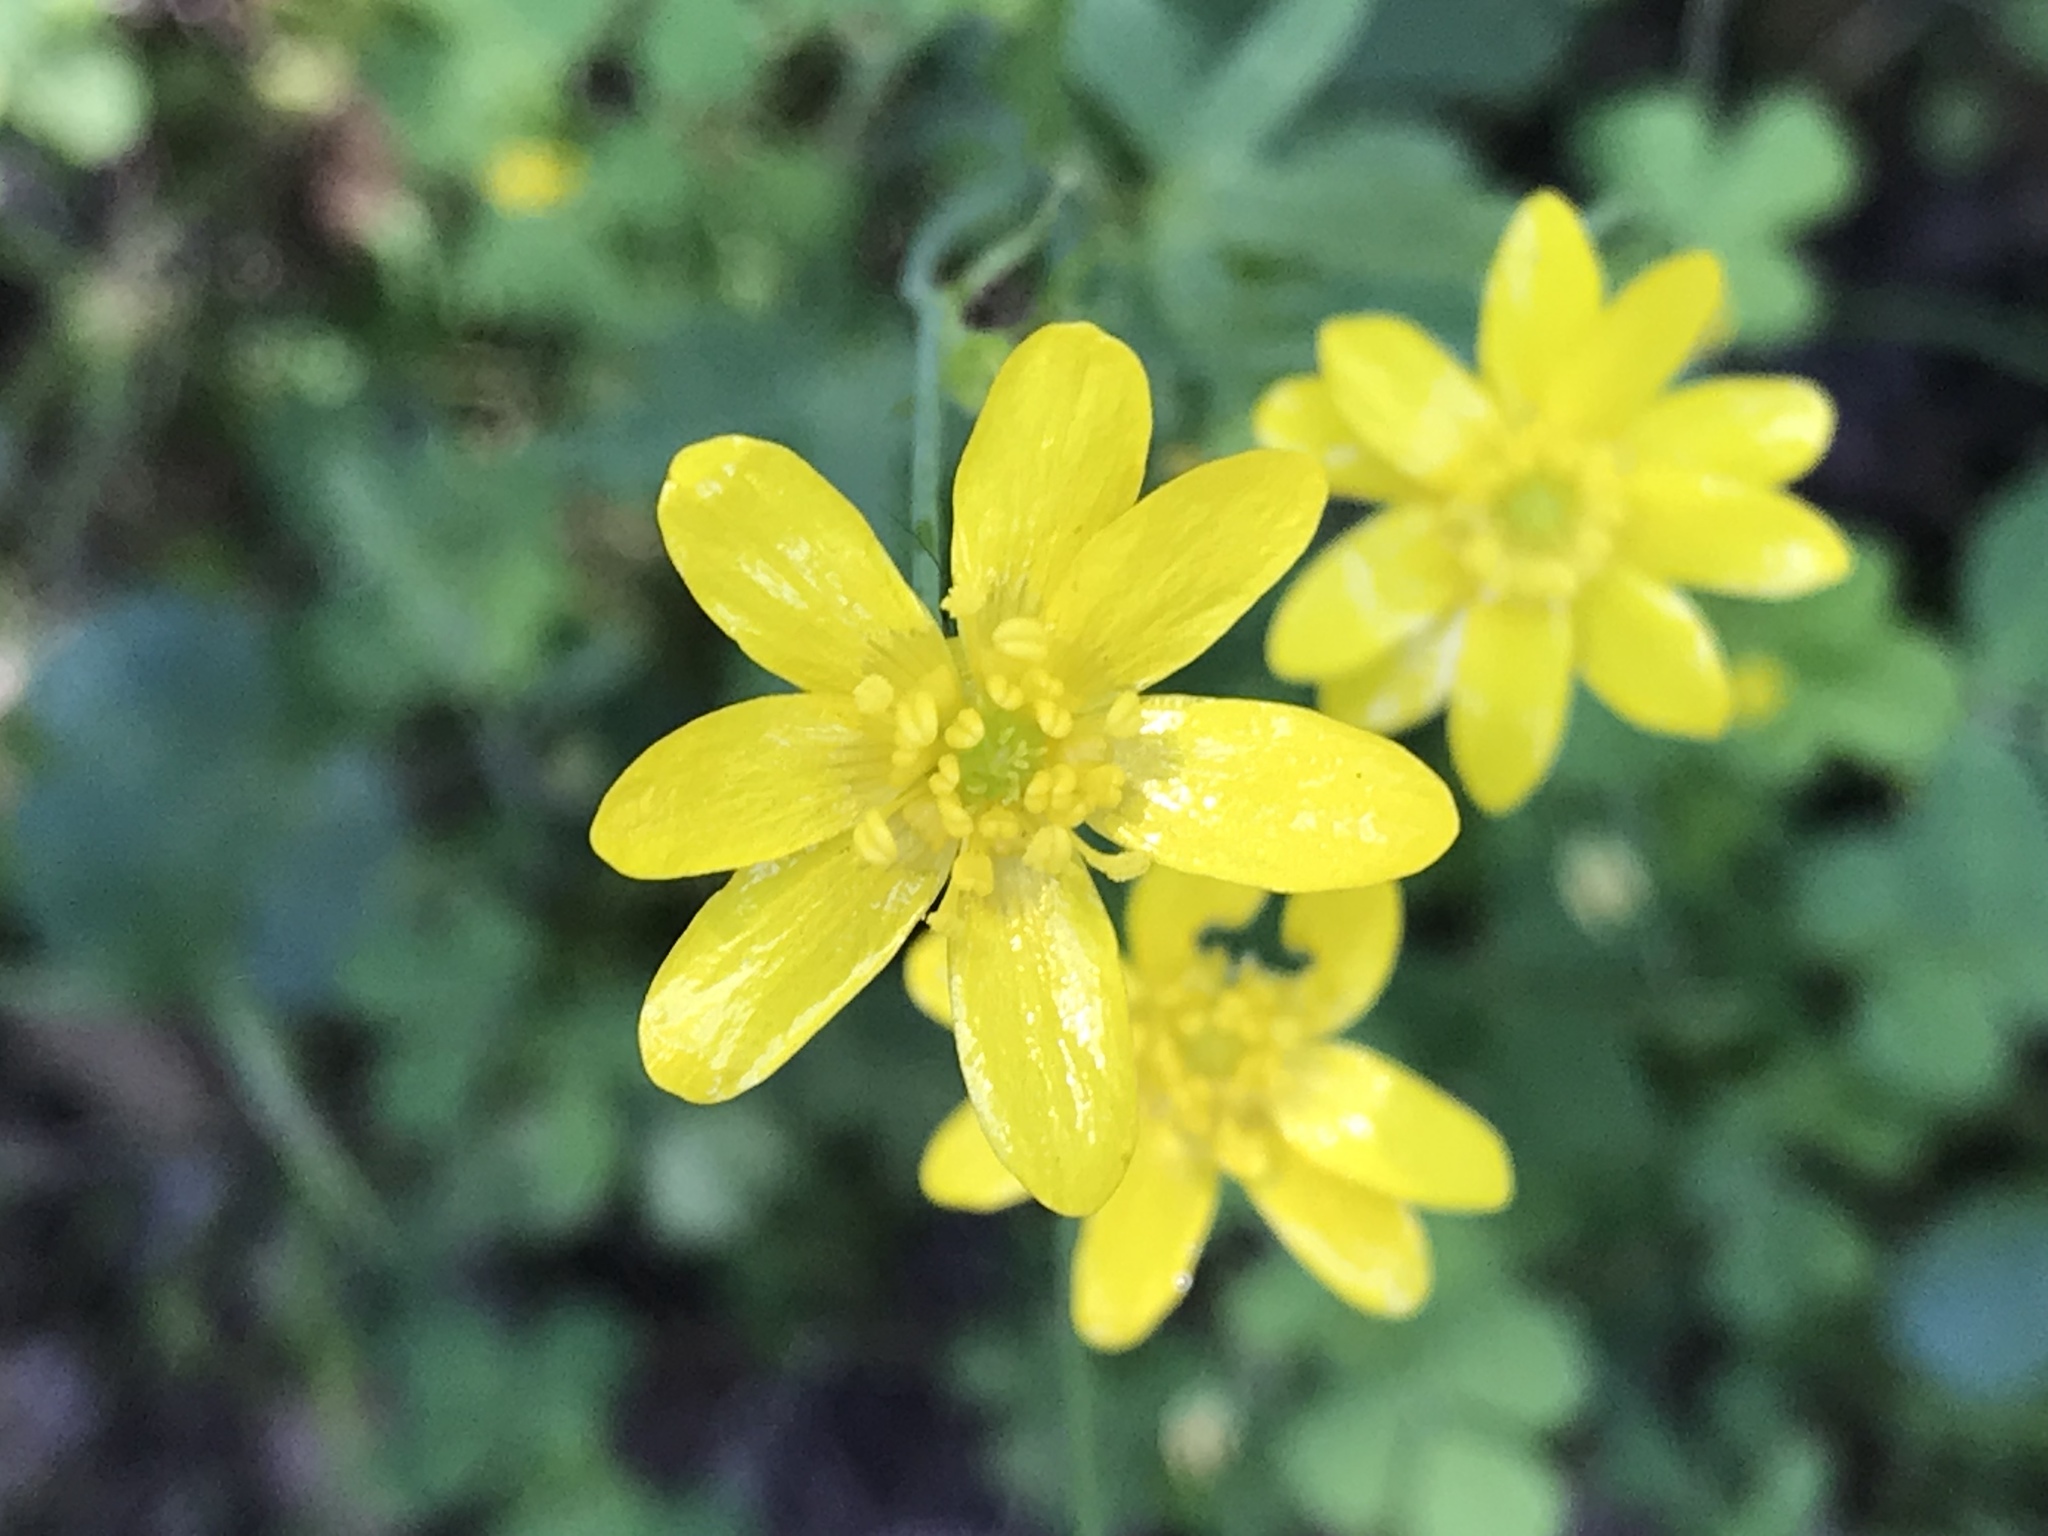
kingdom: Plantae
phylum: Tracheophyta
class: Magnoliopsida
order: Ranunculales
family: Ranunculaceae
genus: Ranunculus
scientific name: Ranunculus californicus
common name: California buttercup
